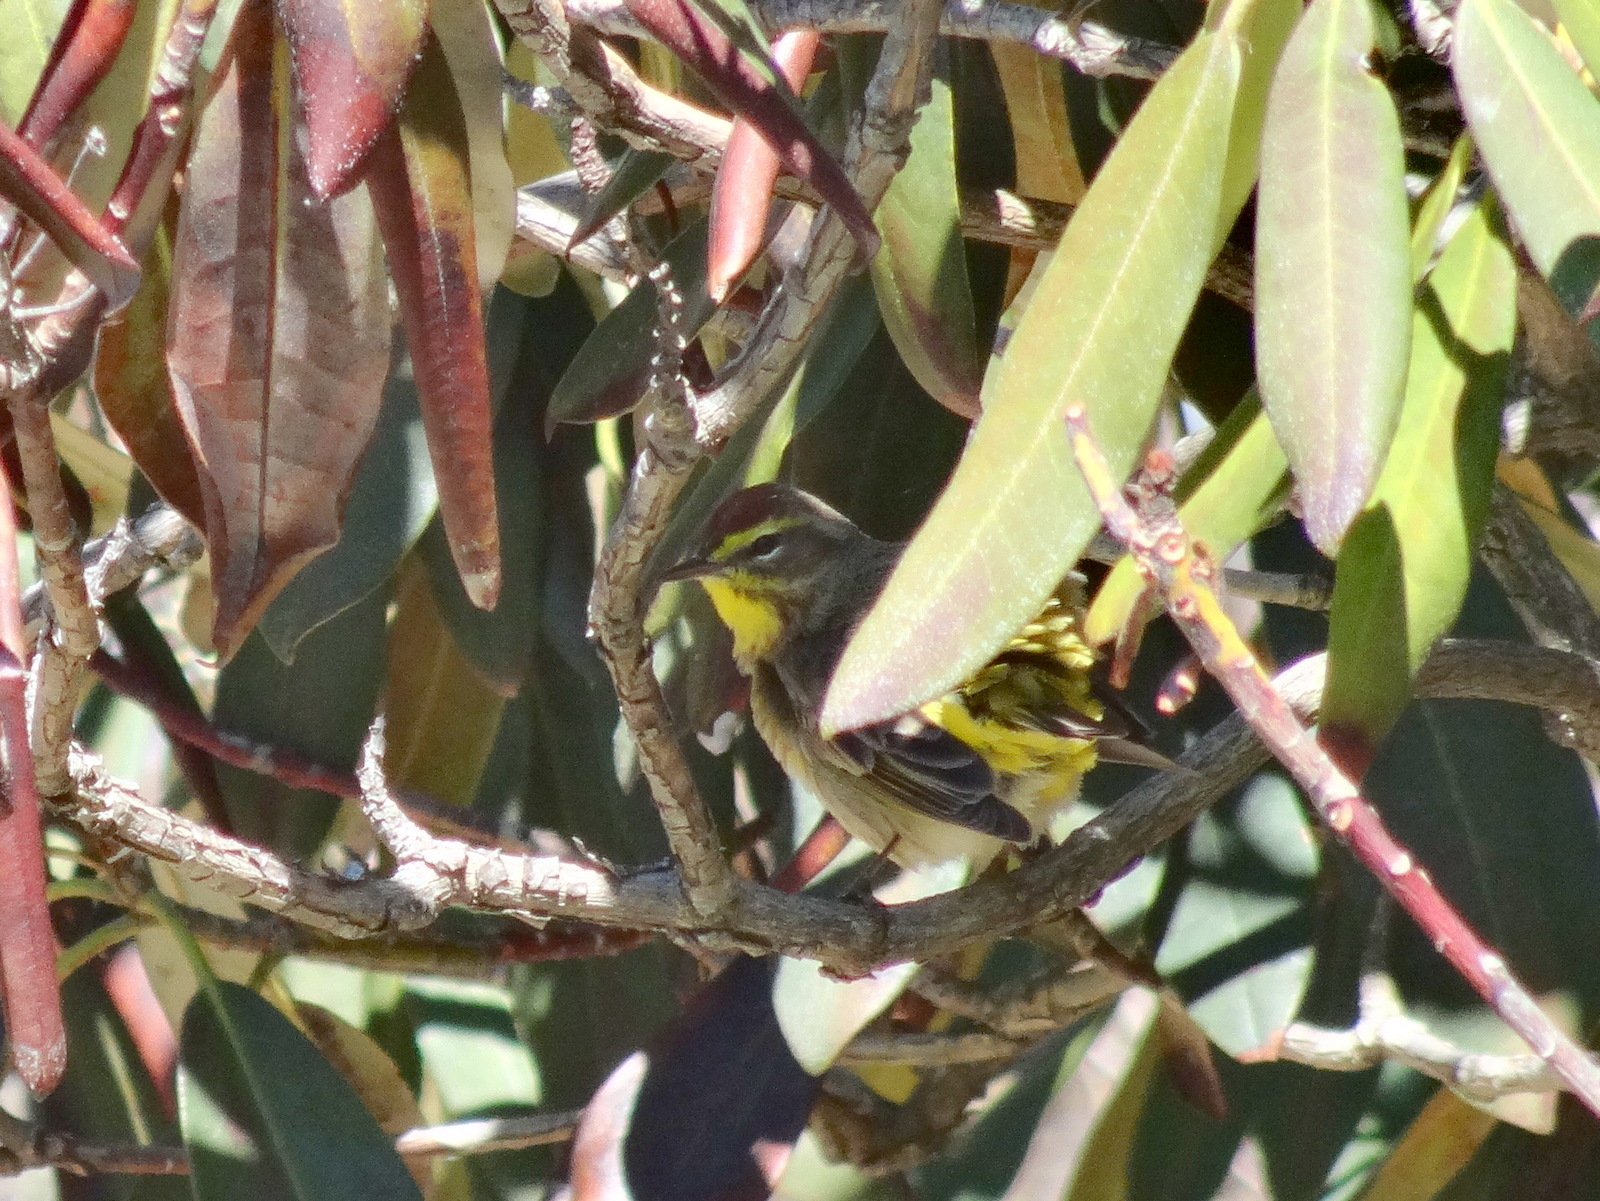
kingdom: Animalia
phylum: Chordata
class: Aves
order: Passeriformes
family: Parulidae
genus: Setophaga
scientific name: Setophaga palmarum
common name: Palm warbler
